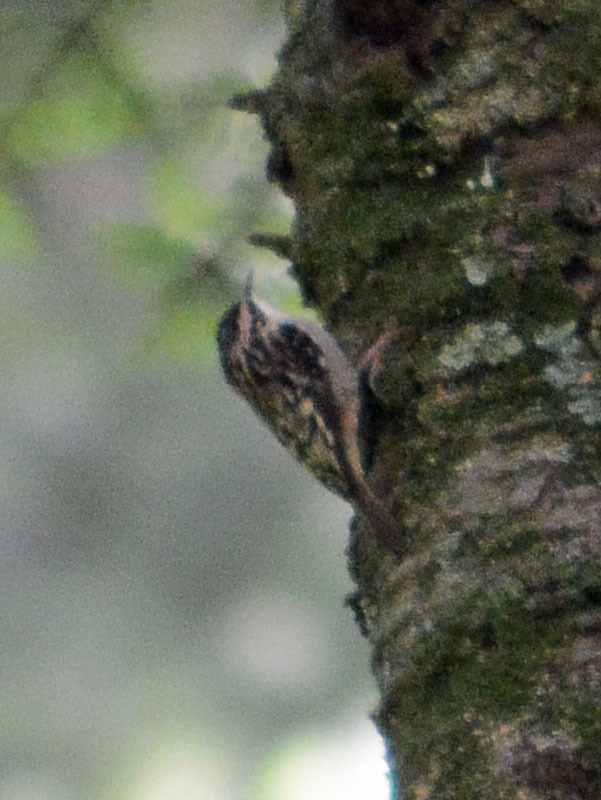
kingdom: Animalia
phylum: Chordata
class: Aves
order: Passeriformes
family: Certhiidae
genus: Certhia
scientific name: Certhia americana
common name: Brown creeper
